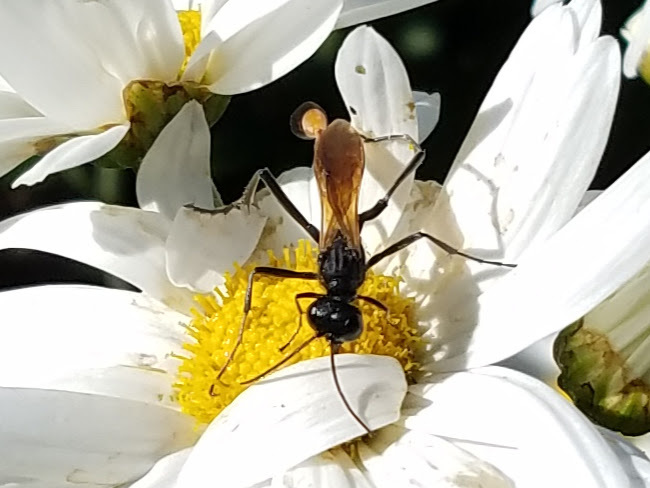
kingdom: Animalia
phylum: Arthropoda
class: Insecta
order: Hymenoptera
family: Sphecidae
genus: Ammophila
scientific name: Ammophila pictipennis
